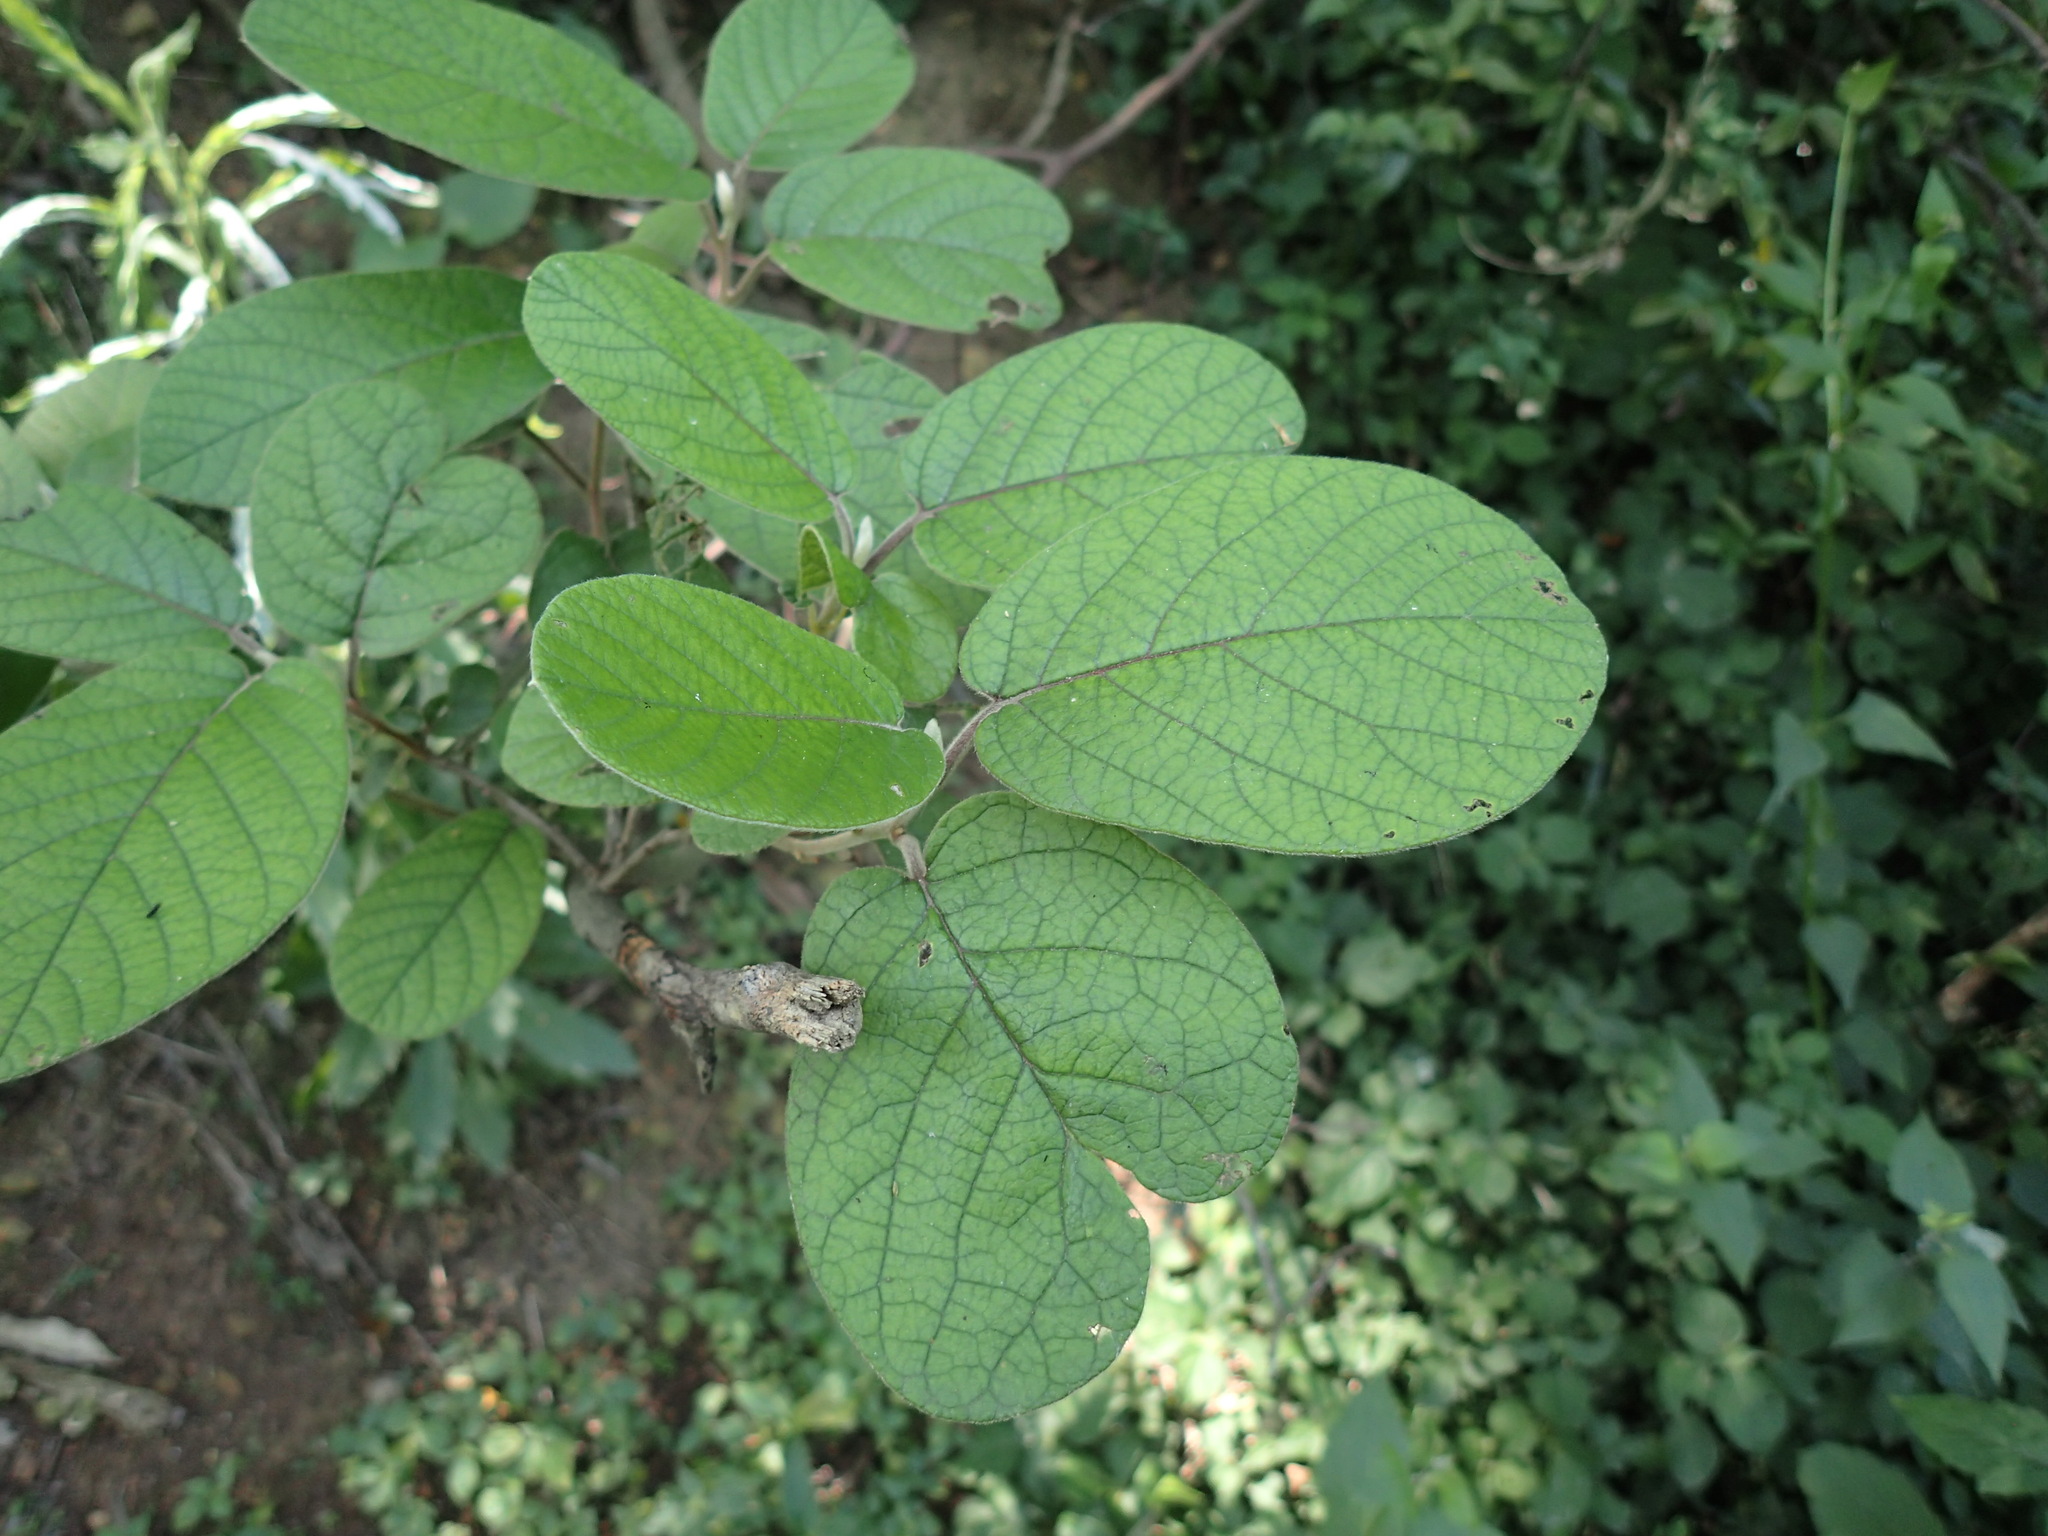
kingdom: Plantae
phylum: Tracheophyta
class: Magnoliopsida
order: Ericales
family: Ebenaceae
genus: Diospyros
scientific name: Diospyros villosa
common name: Hairy star-apple
